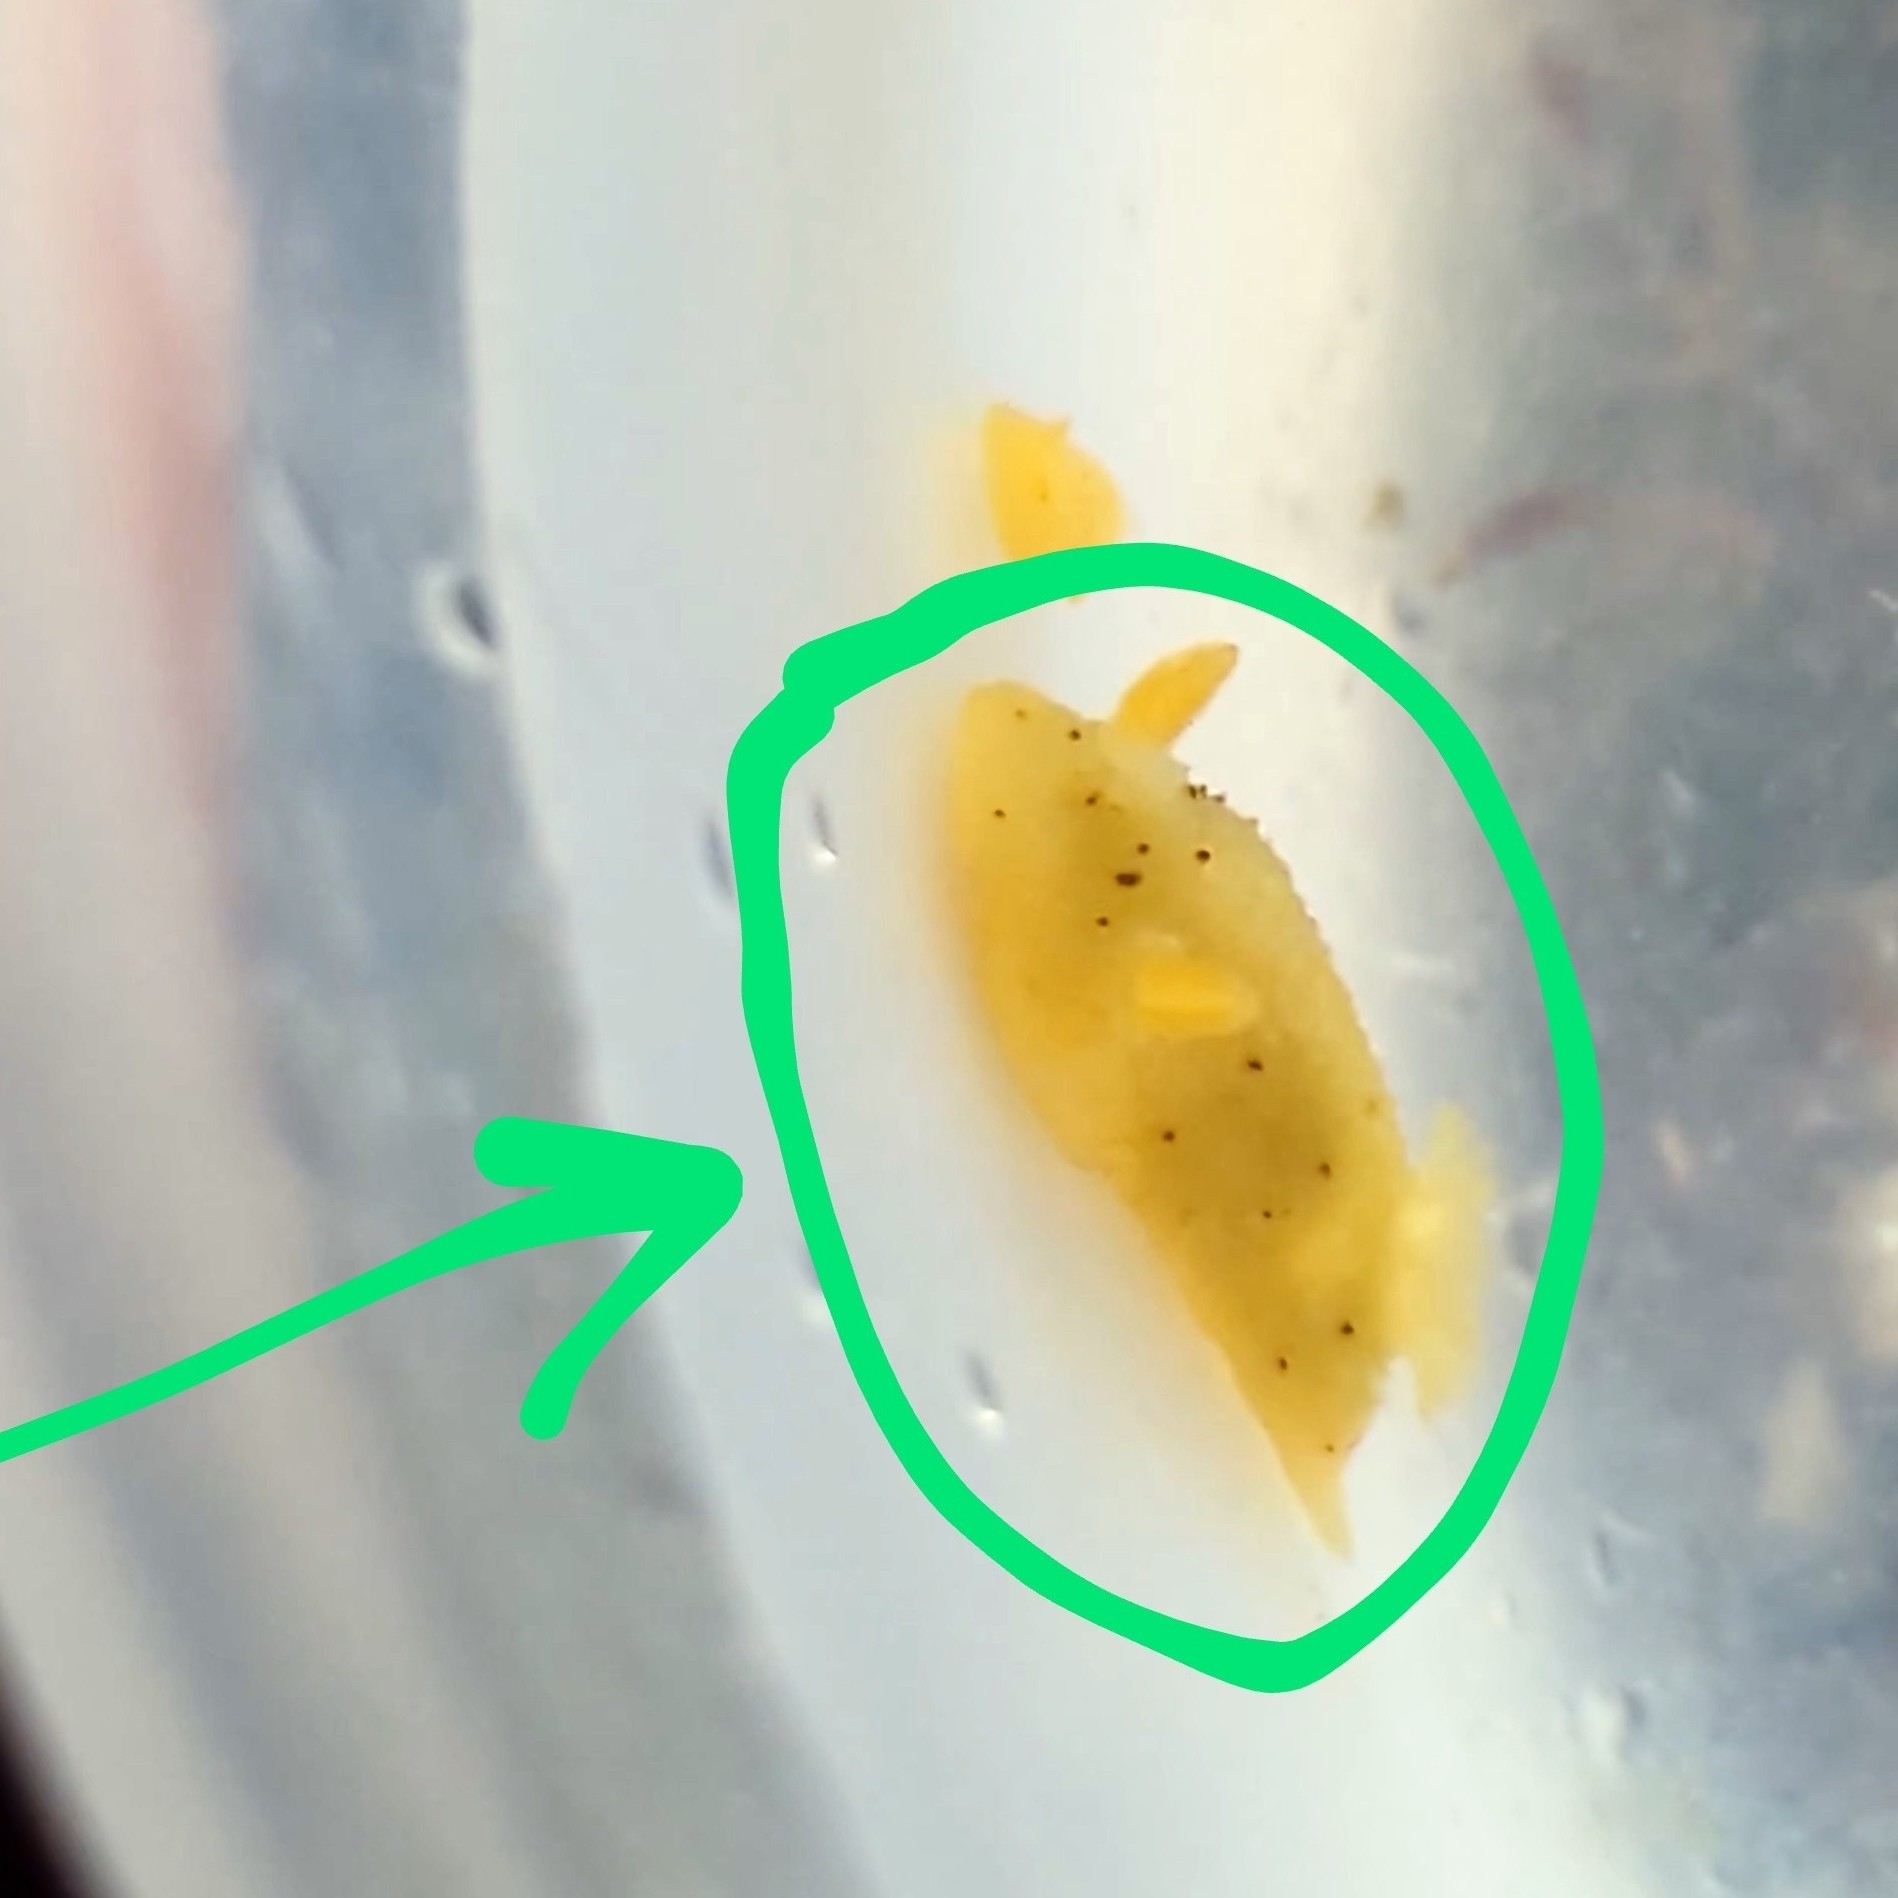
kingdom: Animalia
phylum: Mollusca
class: Gastropoda
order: Nudibranchia
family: Dorididae
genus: Doris
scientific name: Doris montereyensis
